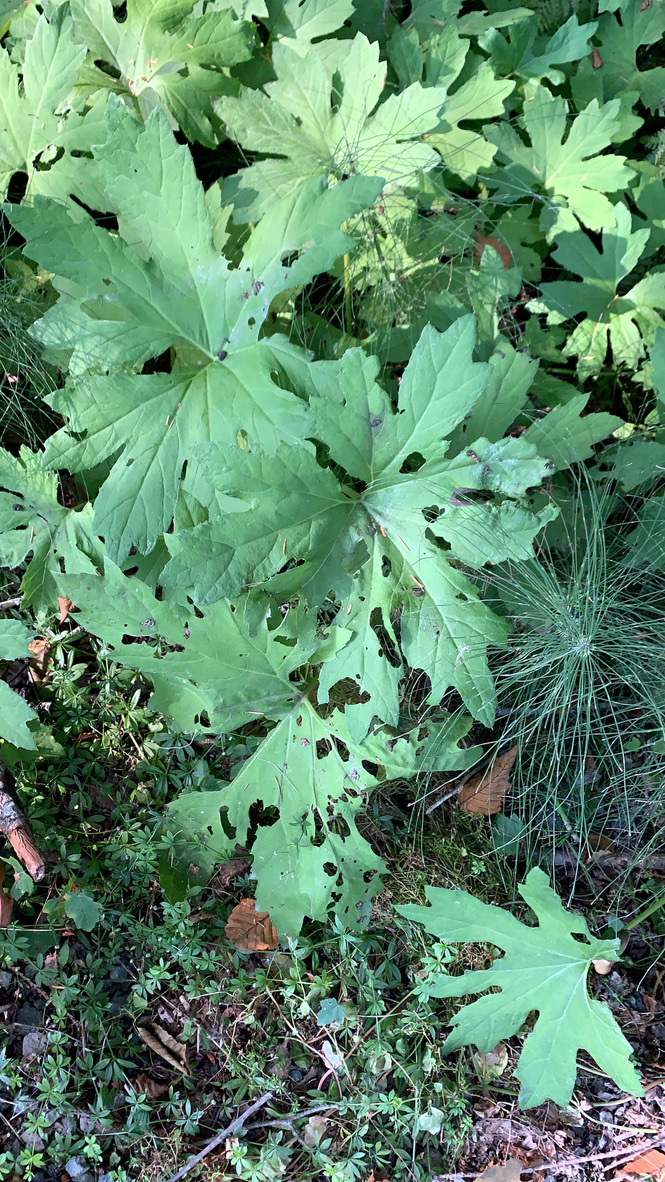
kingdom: Plantae
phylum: Tracheophyta
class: Magnoliopsida
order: Asterales
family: Asteraceae
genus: Petasites
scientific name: Petasites frigidus
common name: Arctic butterbur
